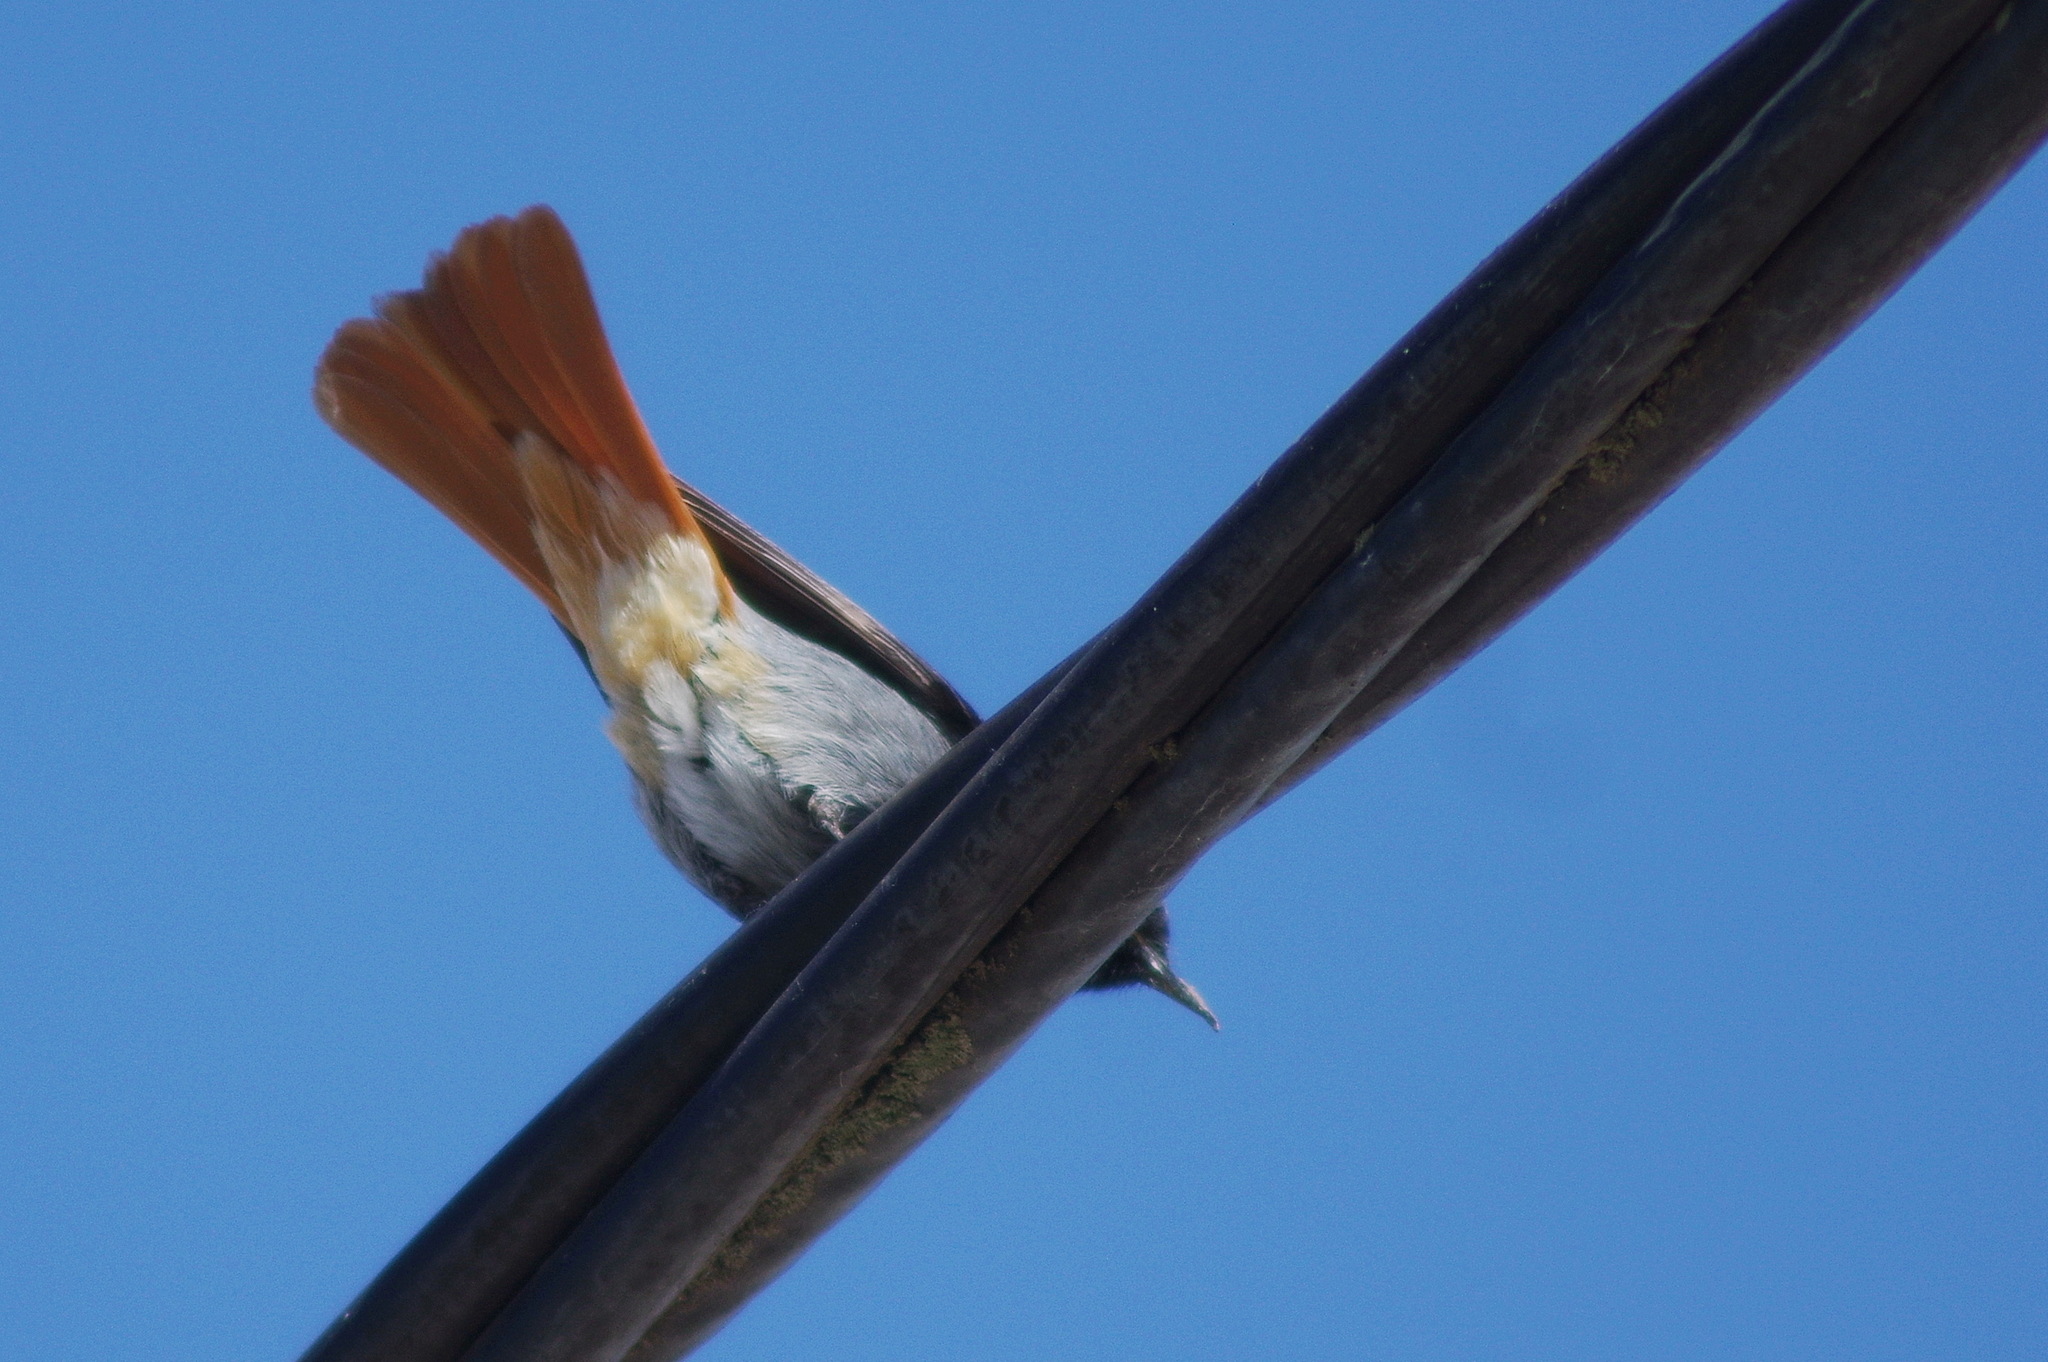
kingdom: Animalia
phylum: Chordata
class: Aves
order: Passeriformes
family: Muscicapidae
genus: Phoenicurus
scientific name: Phoenicurus ochruros
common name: Black redstart
